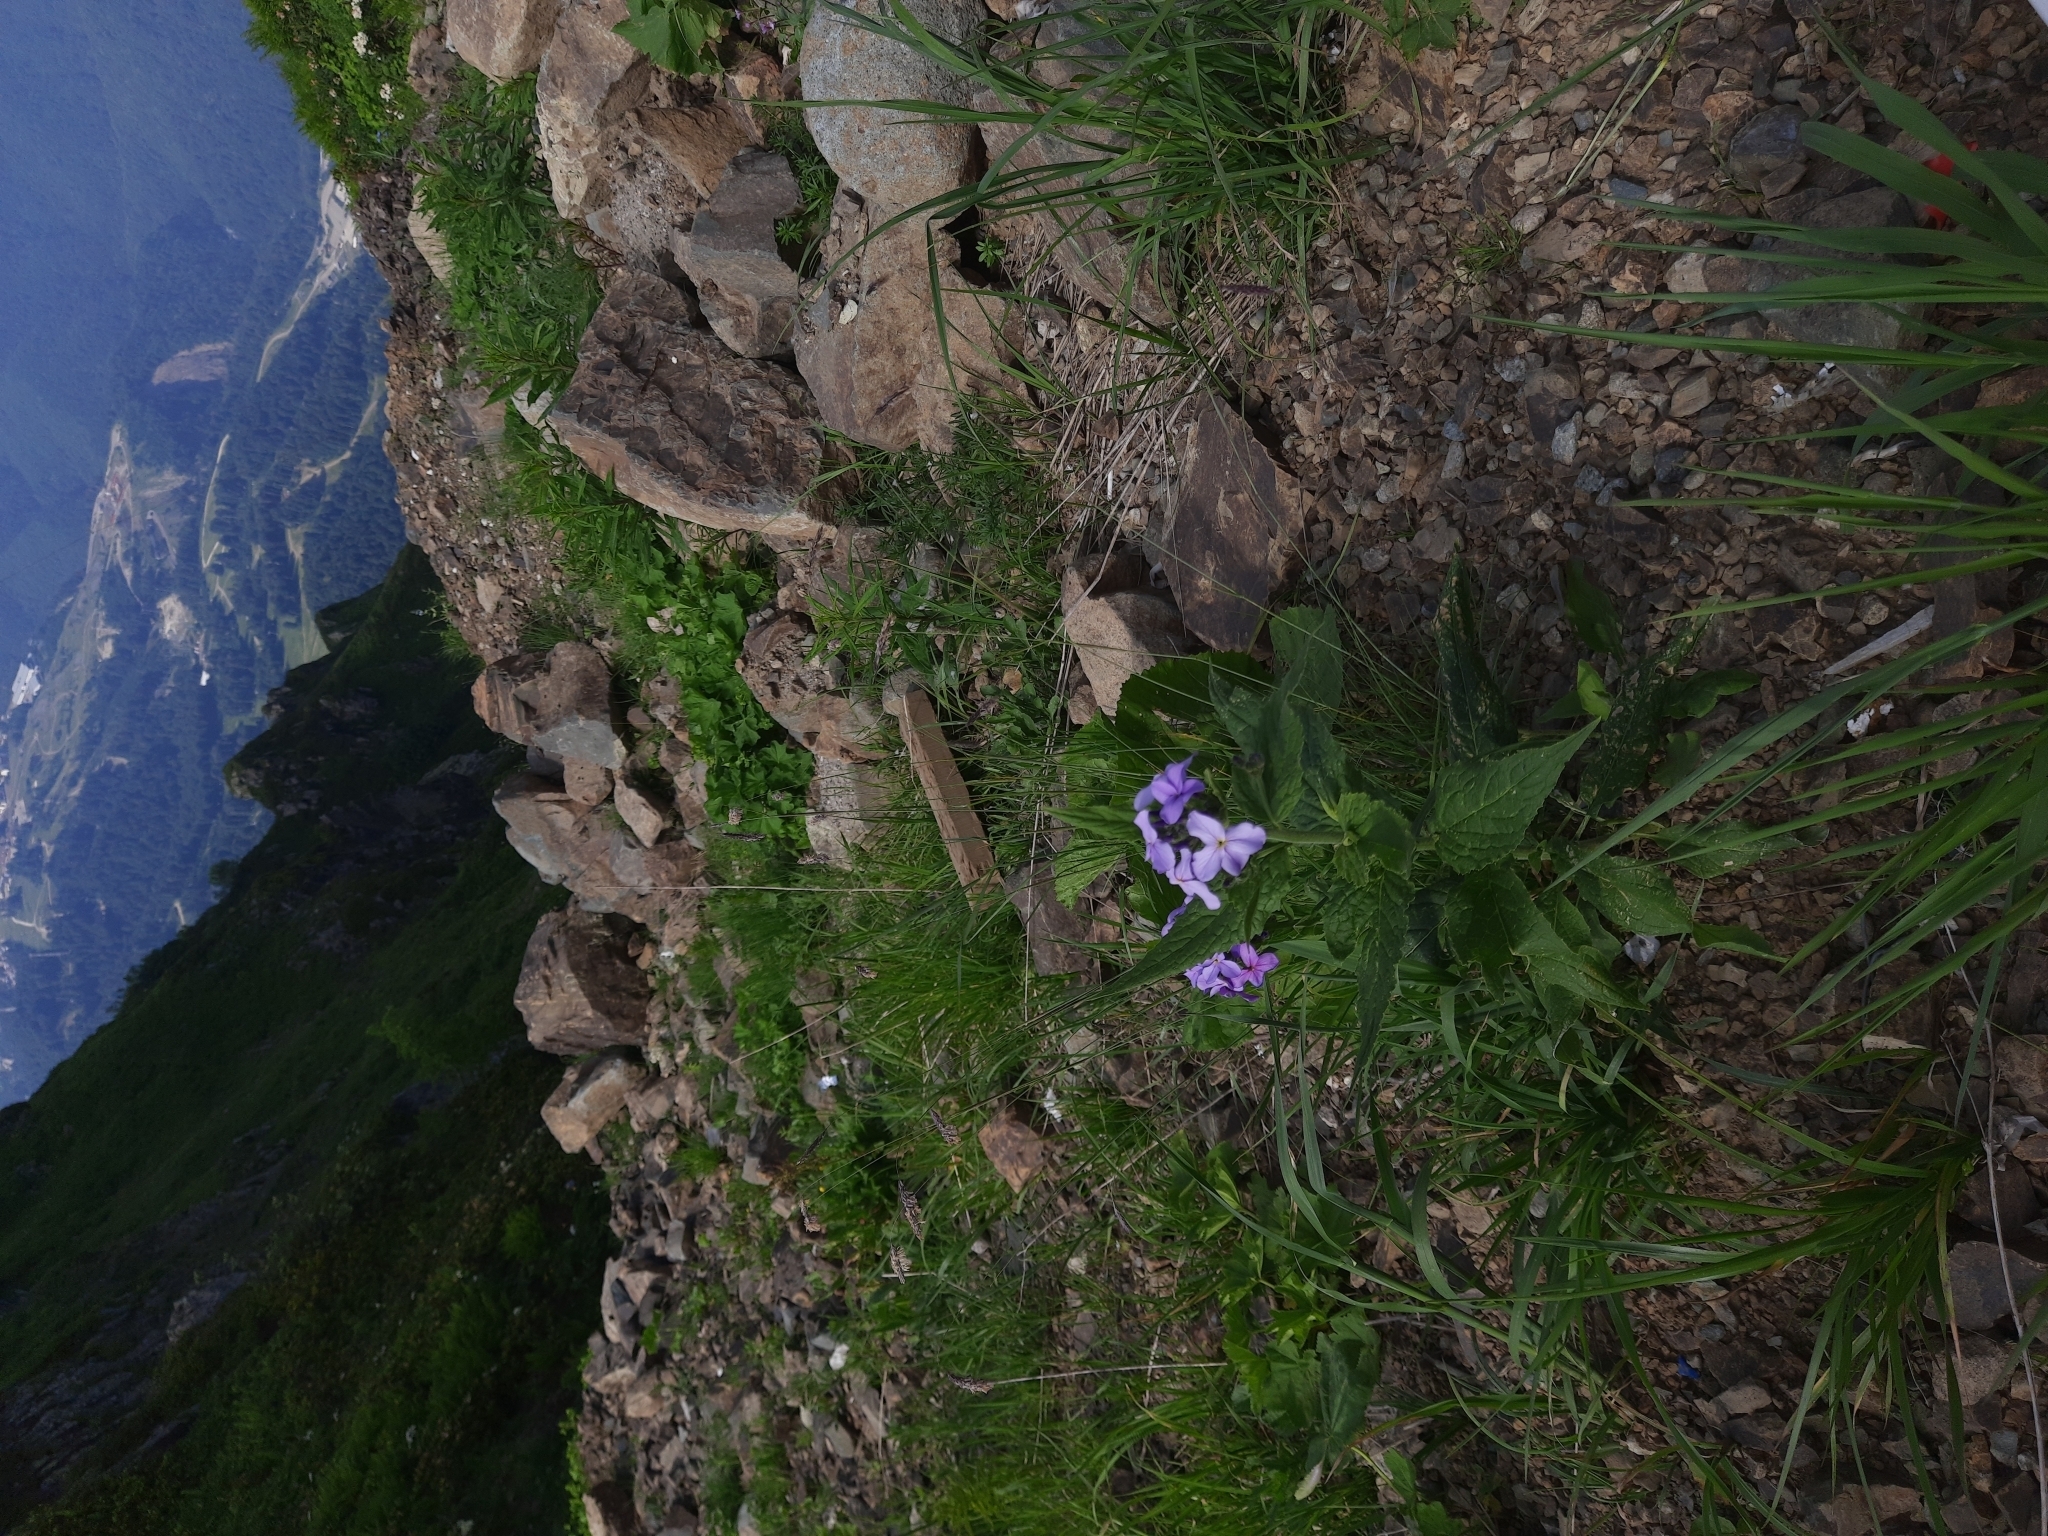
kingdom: Plantae
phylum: Tracheophyta
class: Magnoliopsida
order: Brassicales
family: Brassicaceae
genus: Hesperis
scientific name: Hesperis matronalis
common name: Dame's-violet
